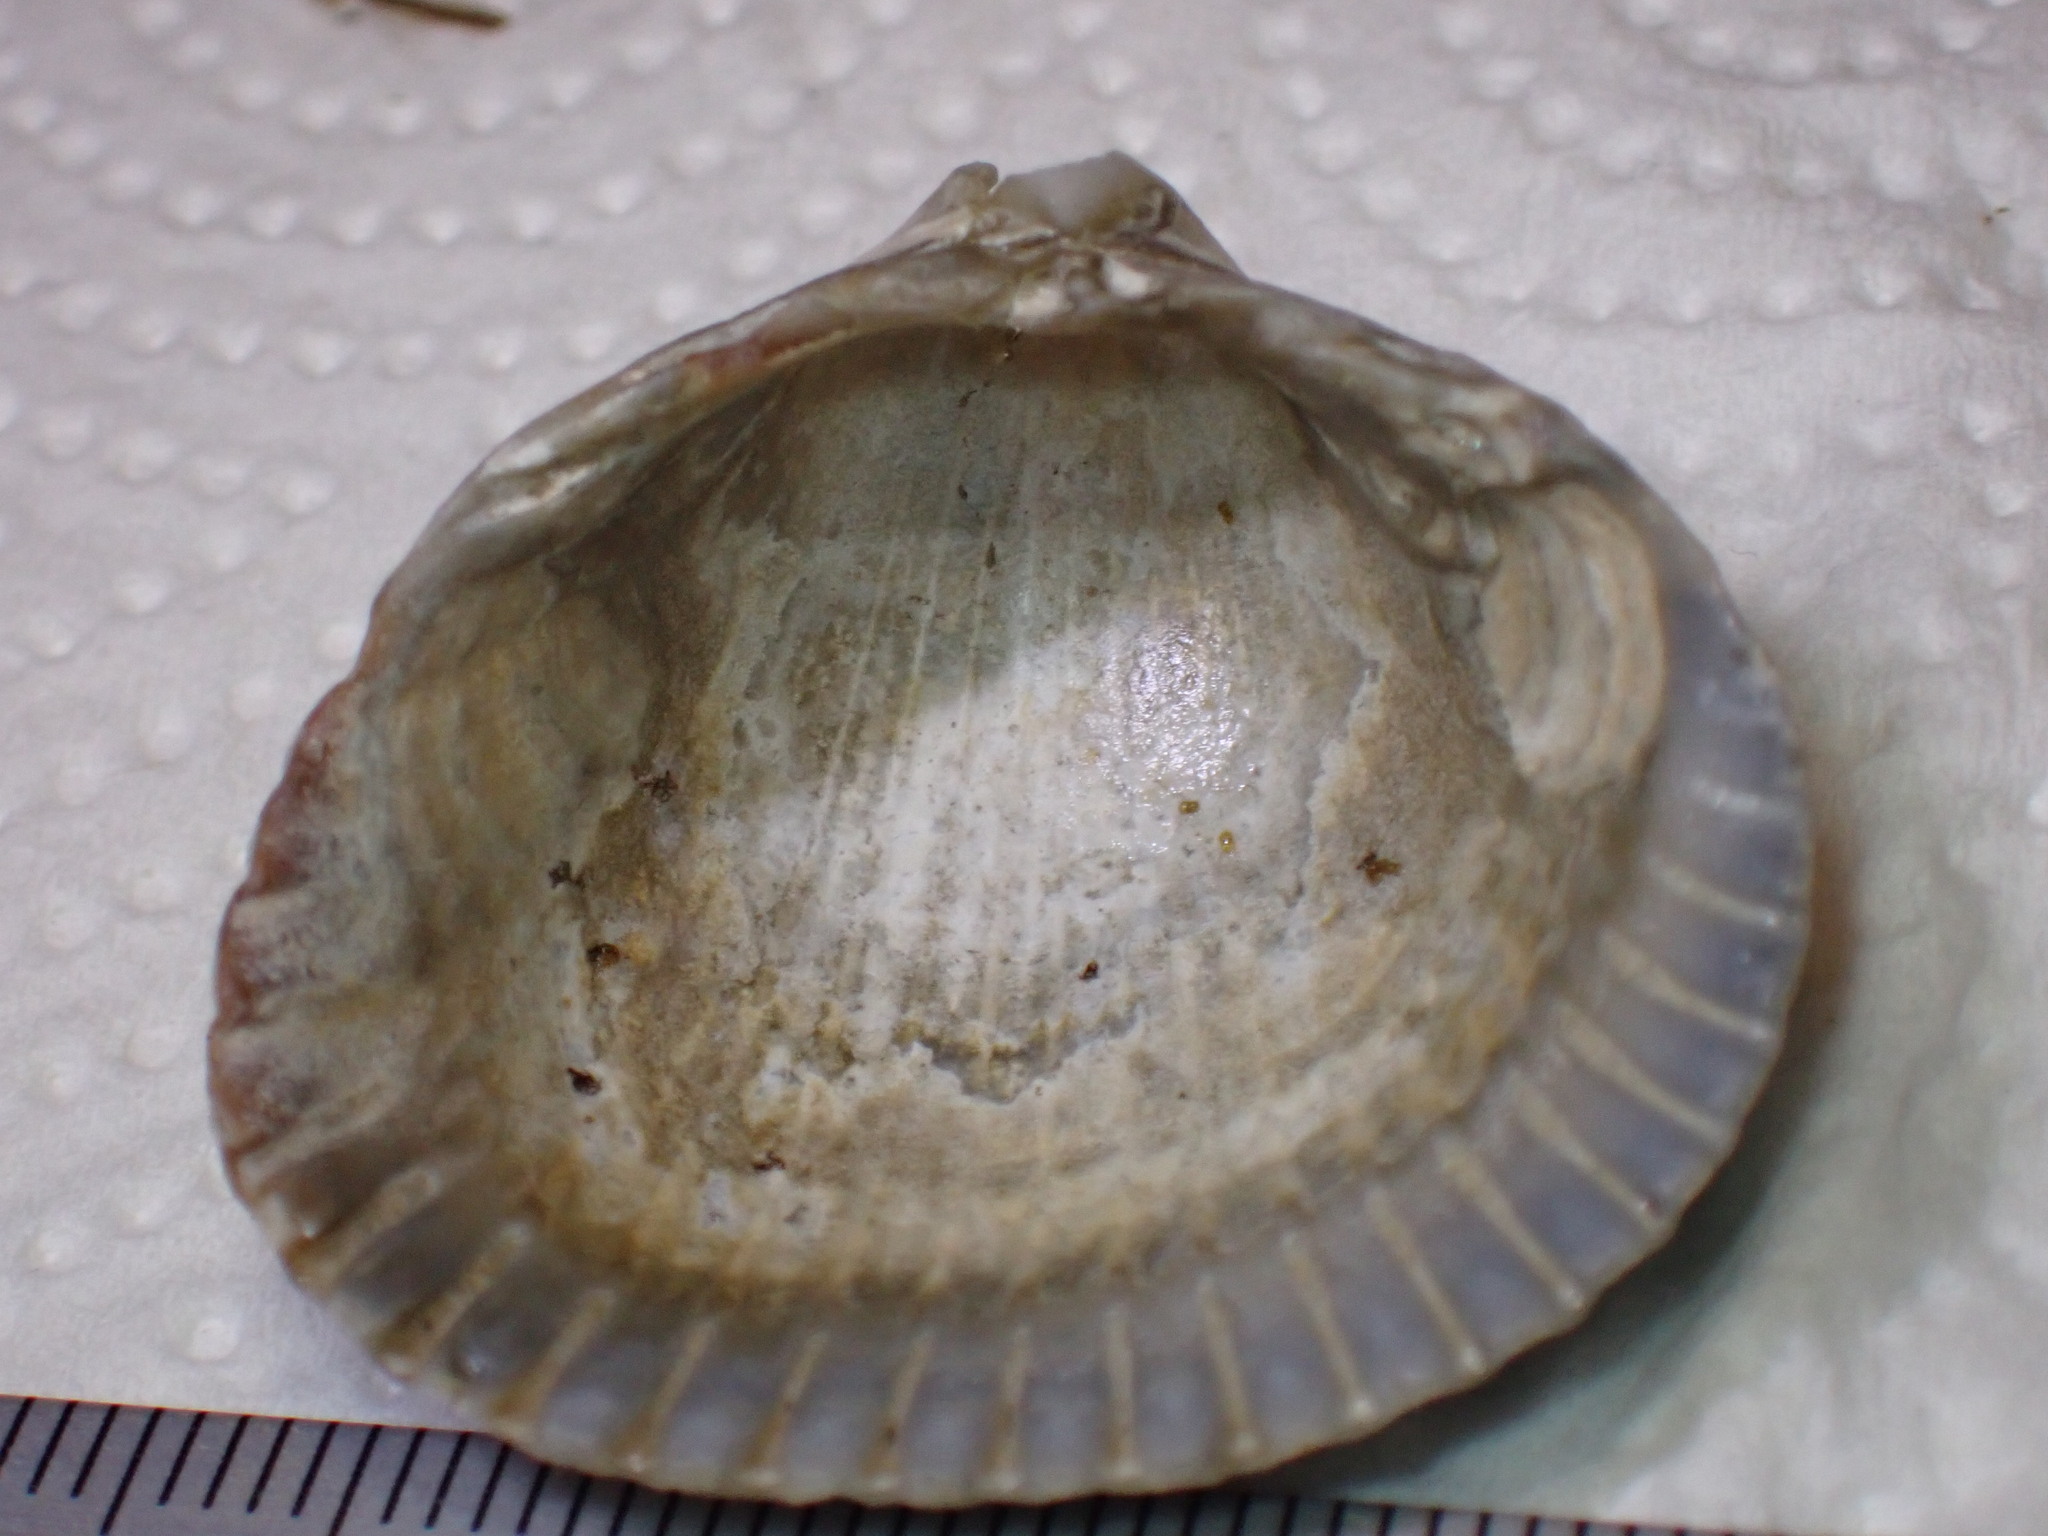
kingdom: Animalia
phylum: Mollusca
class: Bivalvia
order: Cardiida
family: Cardiidae
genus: Cerastoderma
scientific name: Cerastoderma edule
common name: Common cockle
